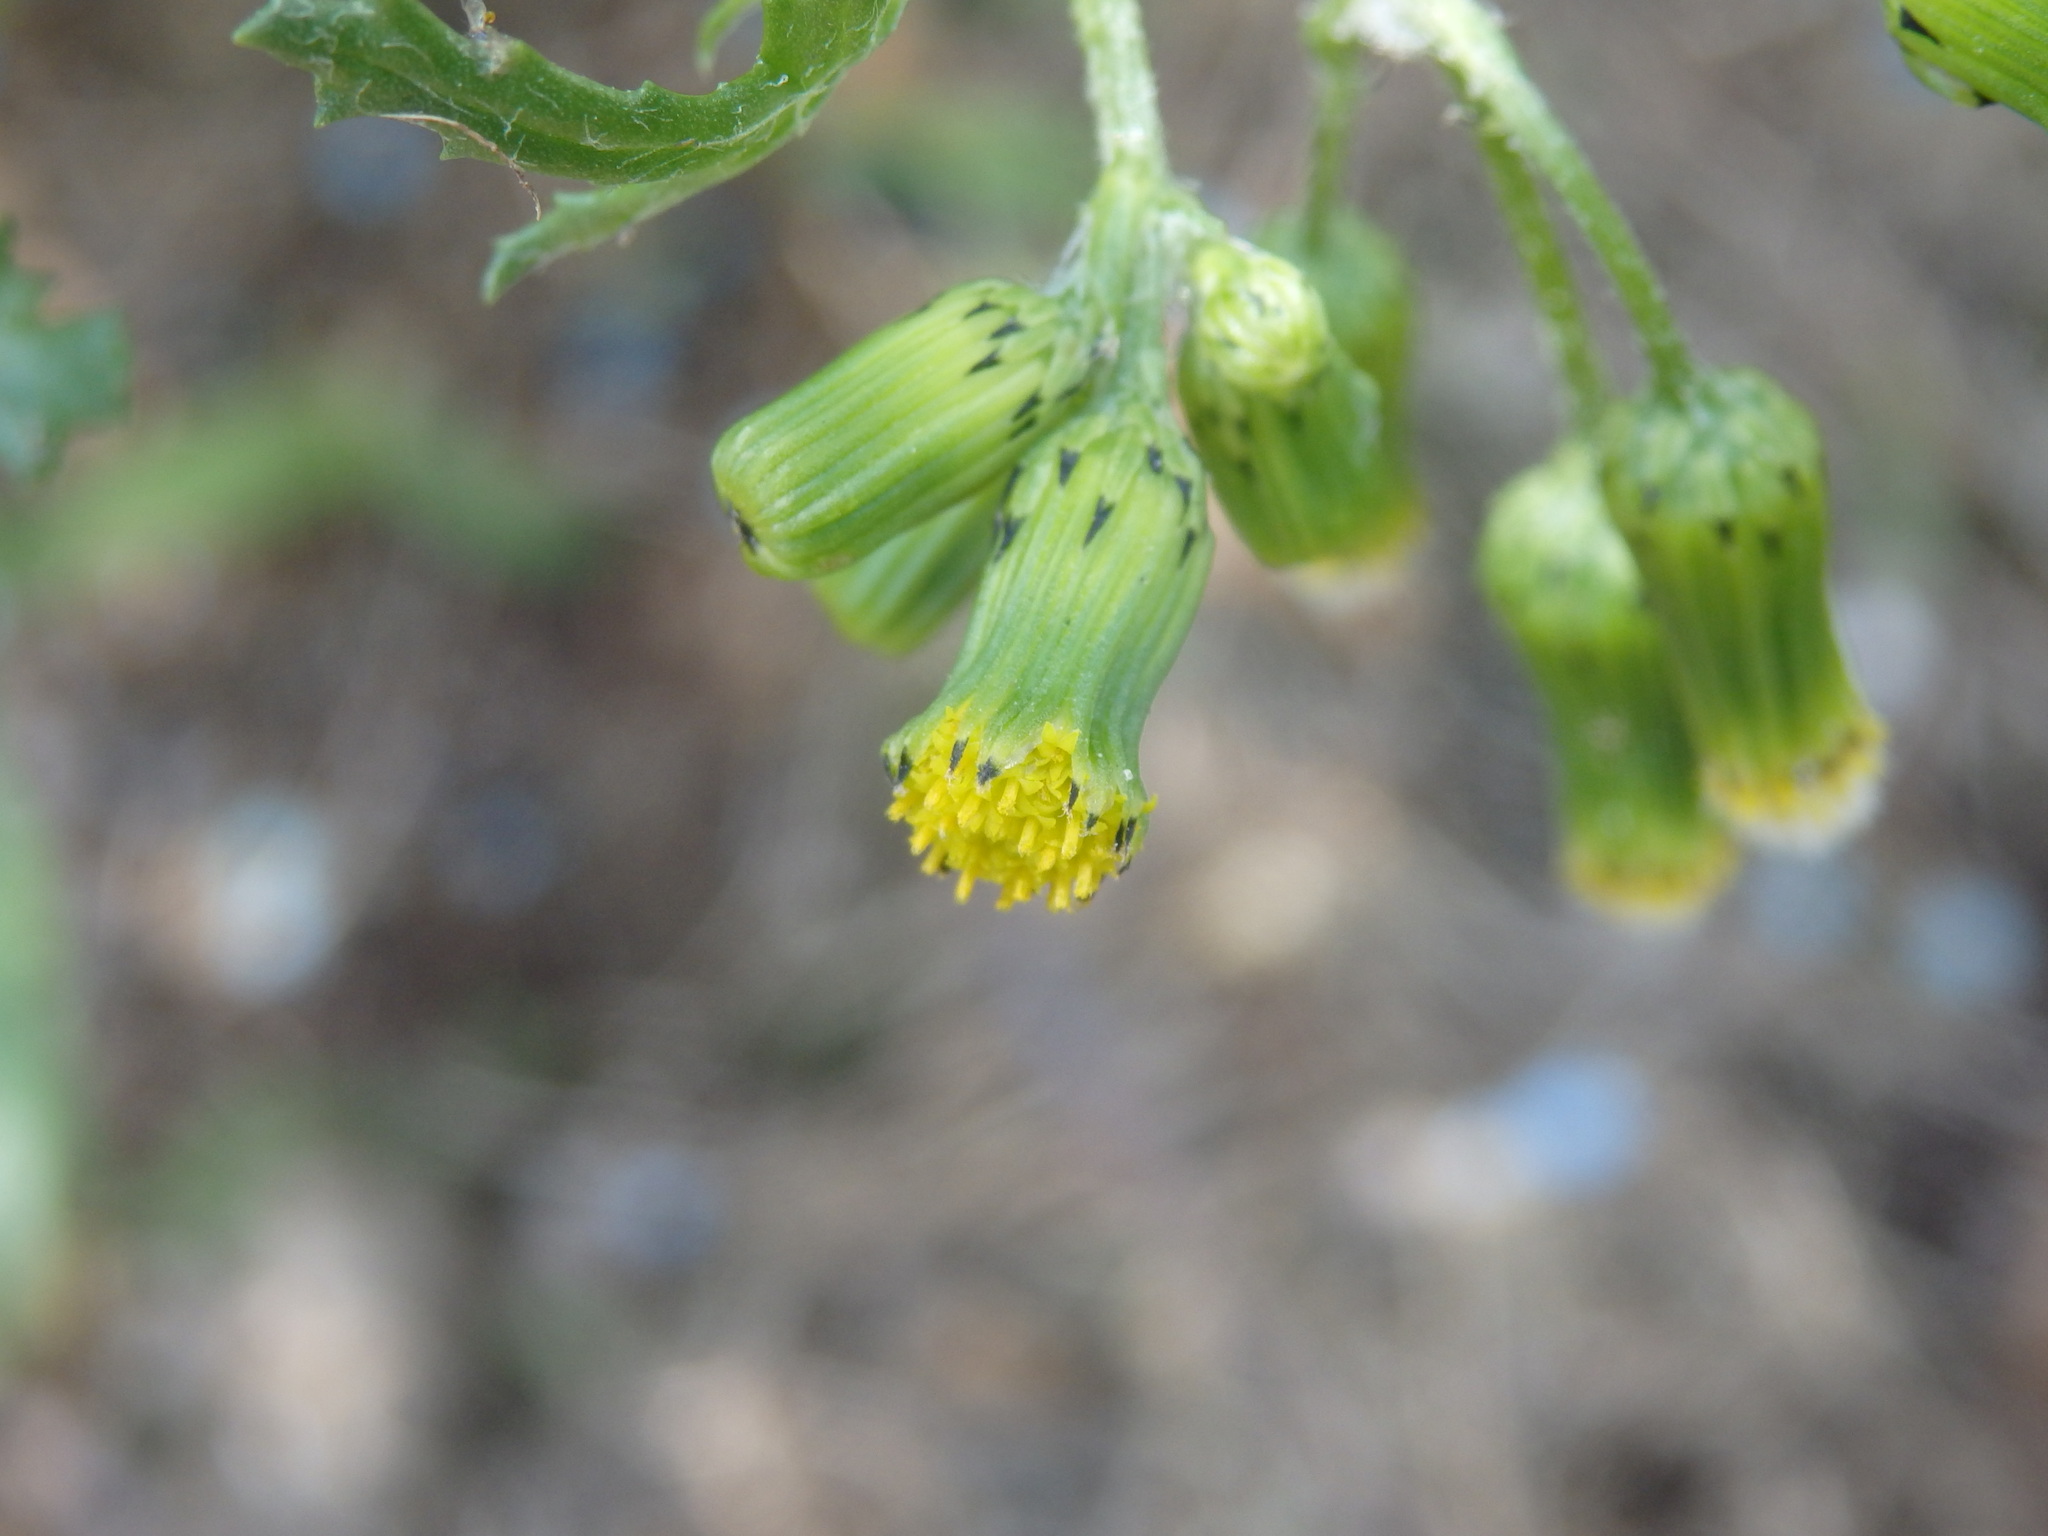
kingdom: Plantae
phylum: Tracheophyta
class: Magnoliopsida
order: Asterales
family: Asteraceae
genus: Senecio
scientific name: Senecio vulgaris
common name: Old-man-in-the-spring
